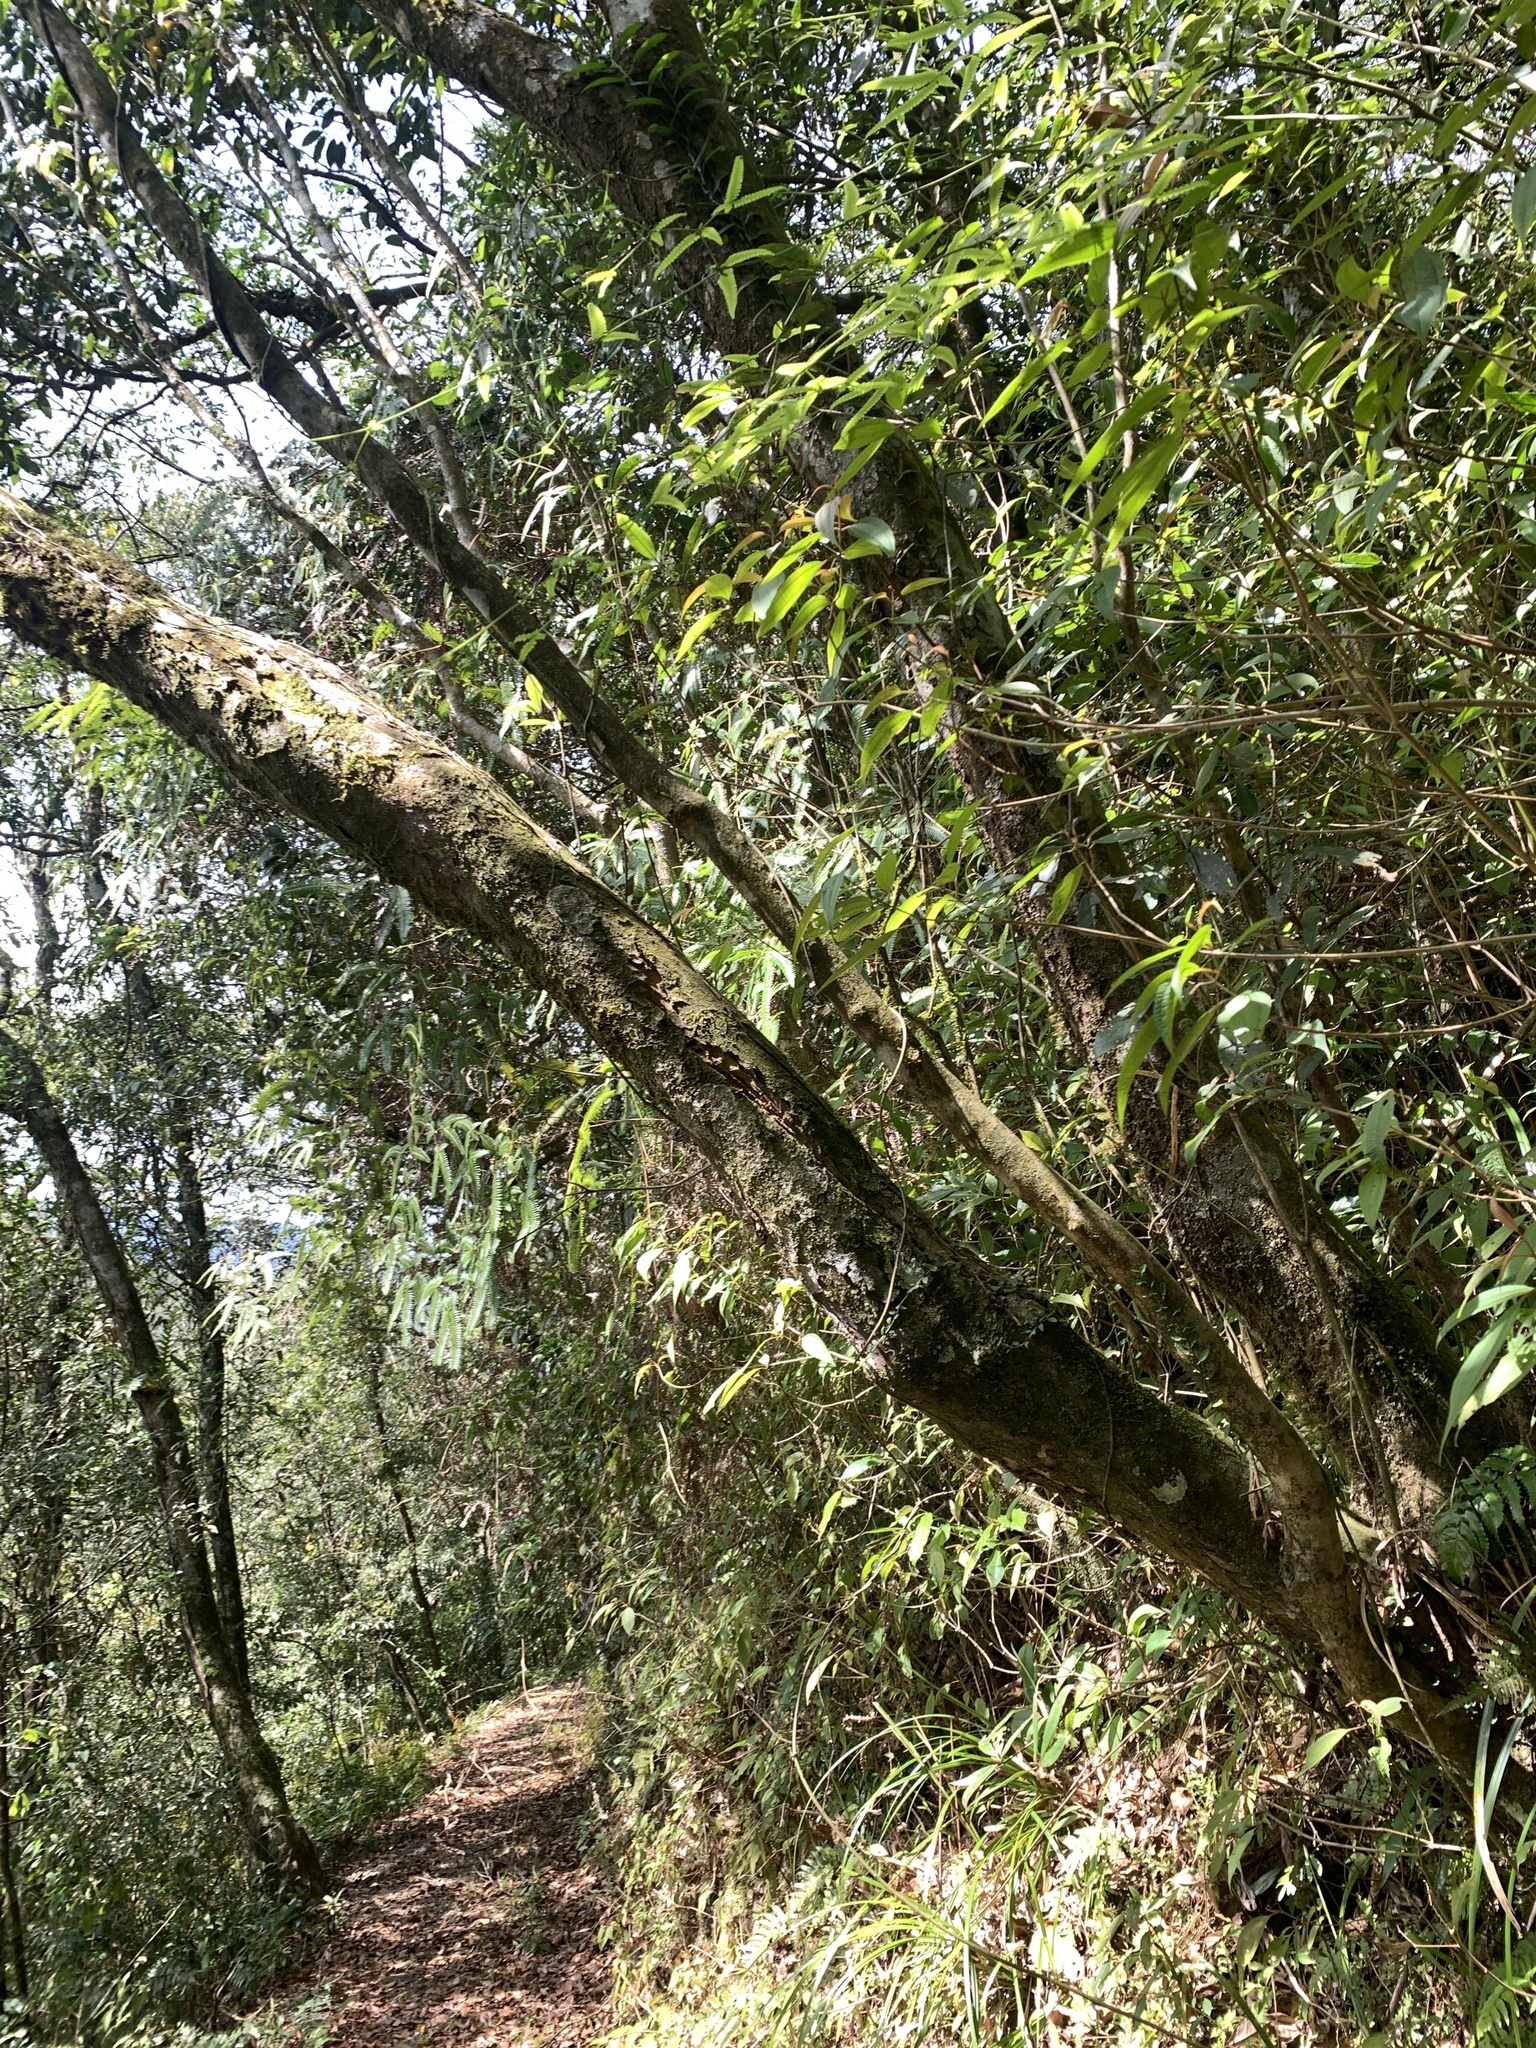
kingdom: Plantae
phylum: Tracheophyta
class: Magnoliopsida
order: Ericales
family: Ericaceae
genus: Rhododendron
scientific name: Rhododendron latoucheae
